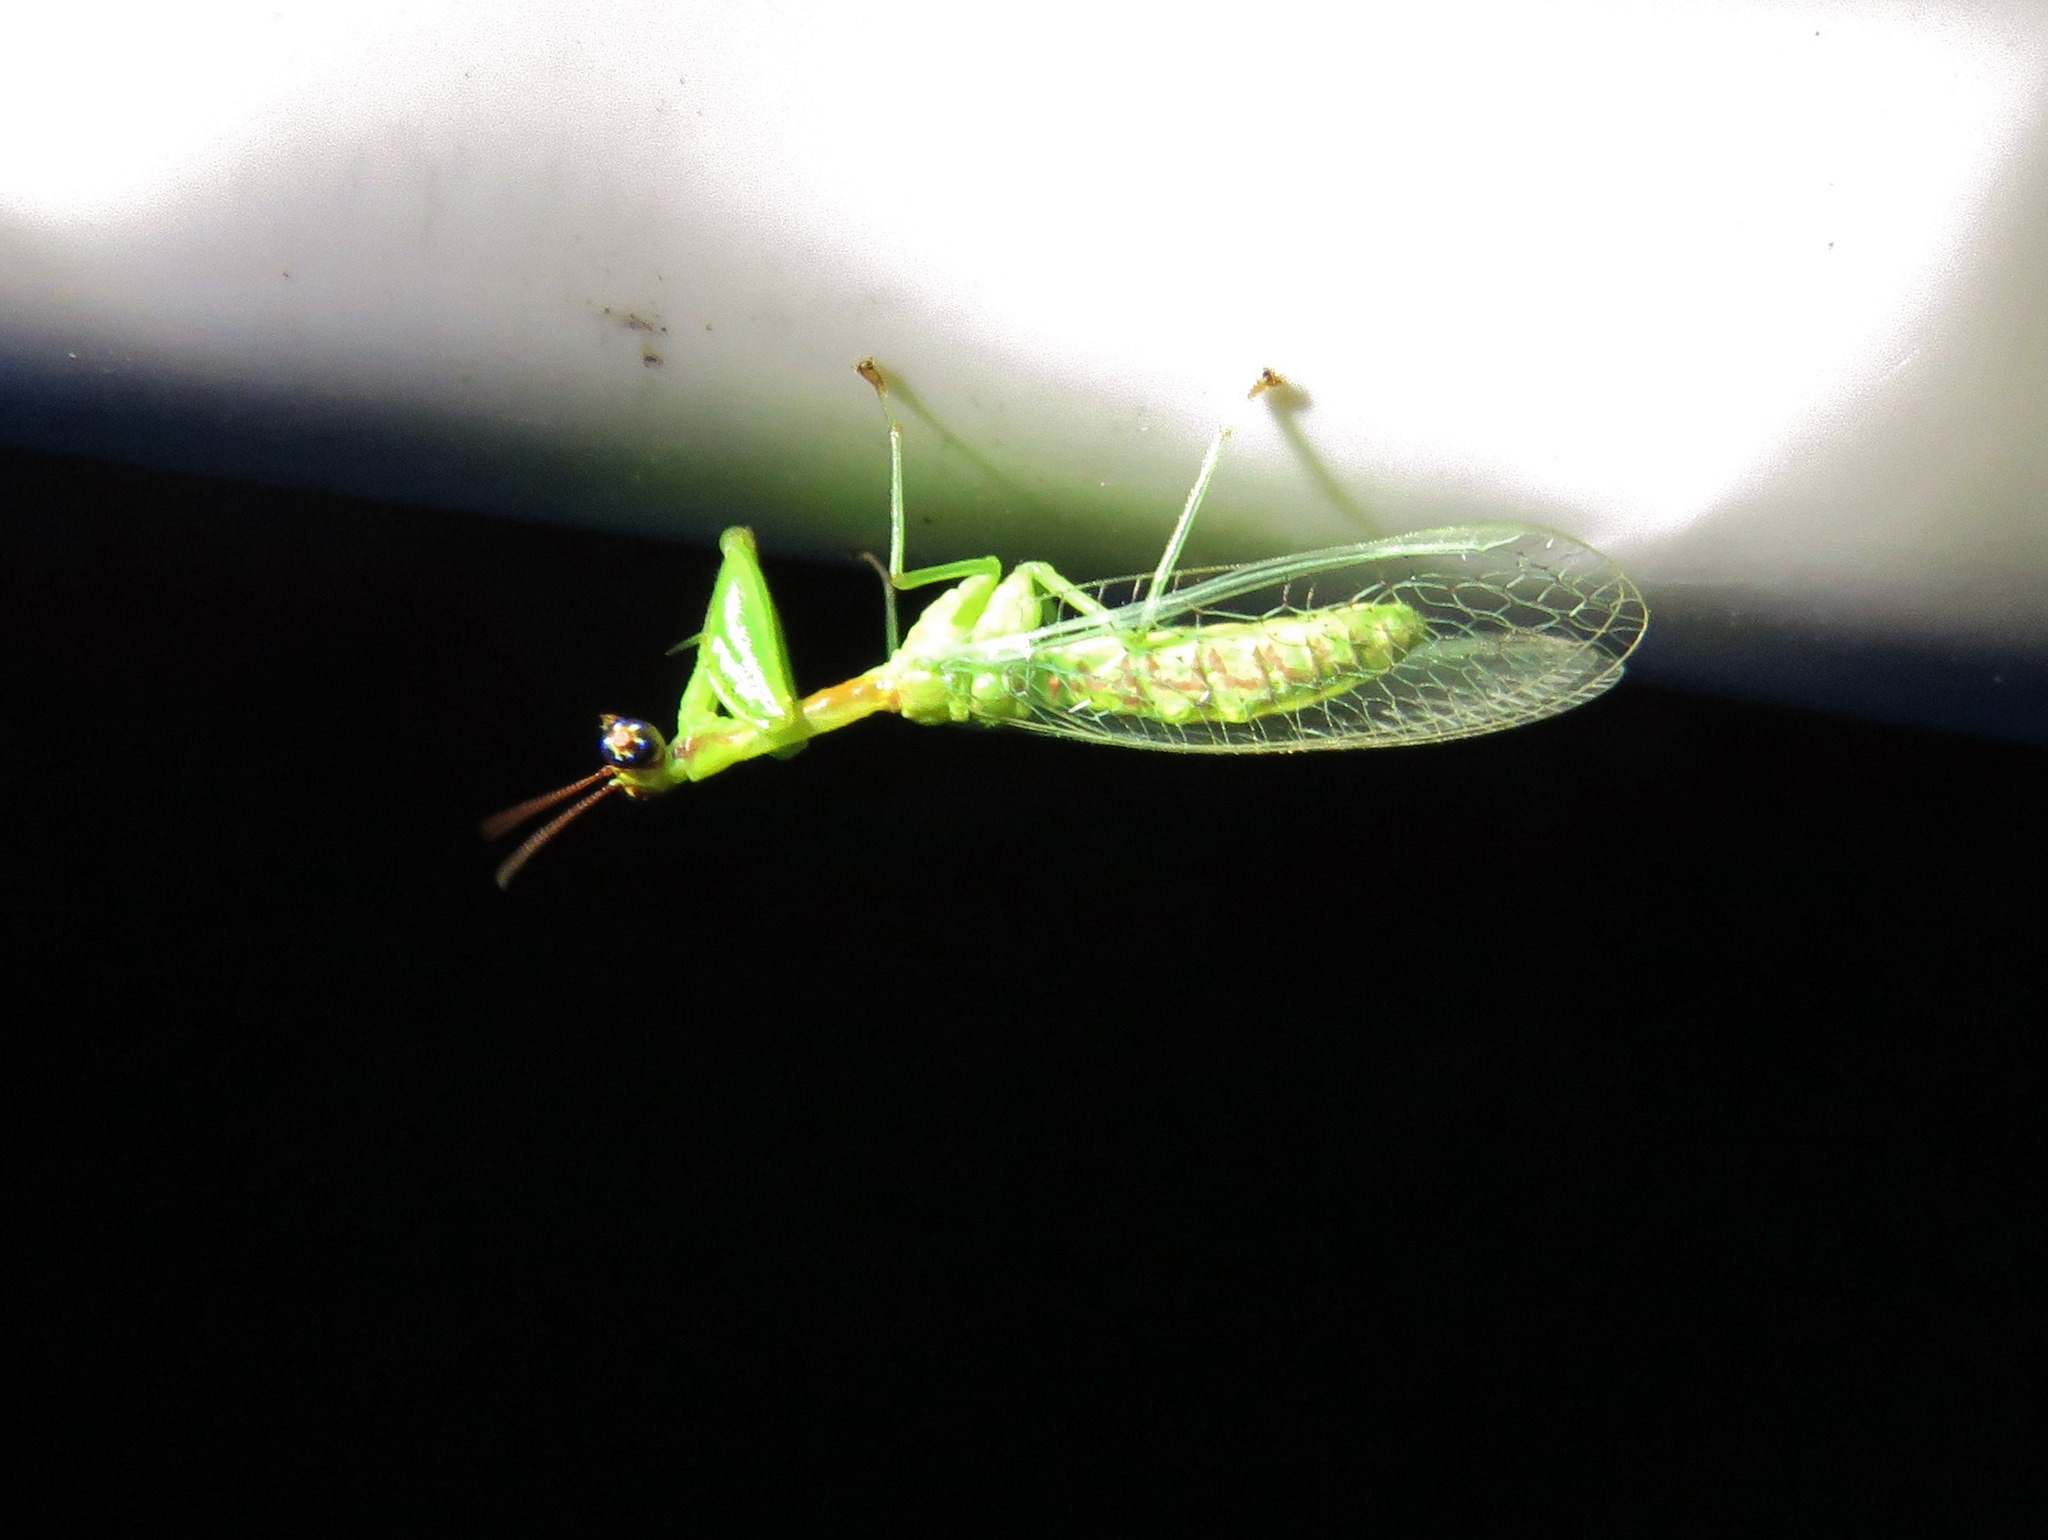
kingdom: Animalia
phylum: Arthropoda
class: Insecta
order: Neuroptera
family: Mantispidae
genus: Zeugomantispa
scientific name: Zeugomantispa minuta
